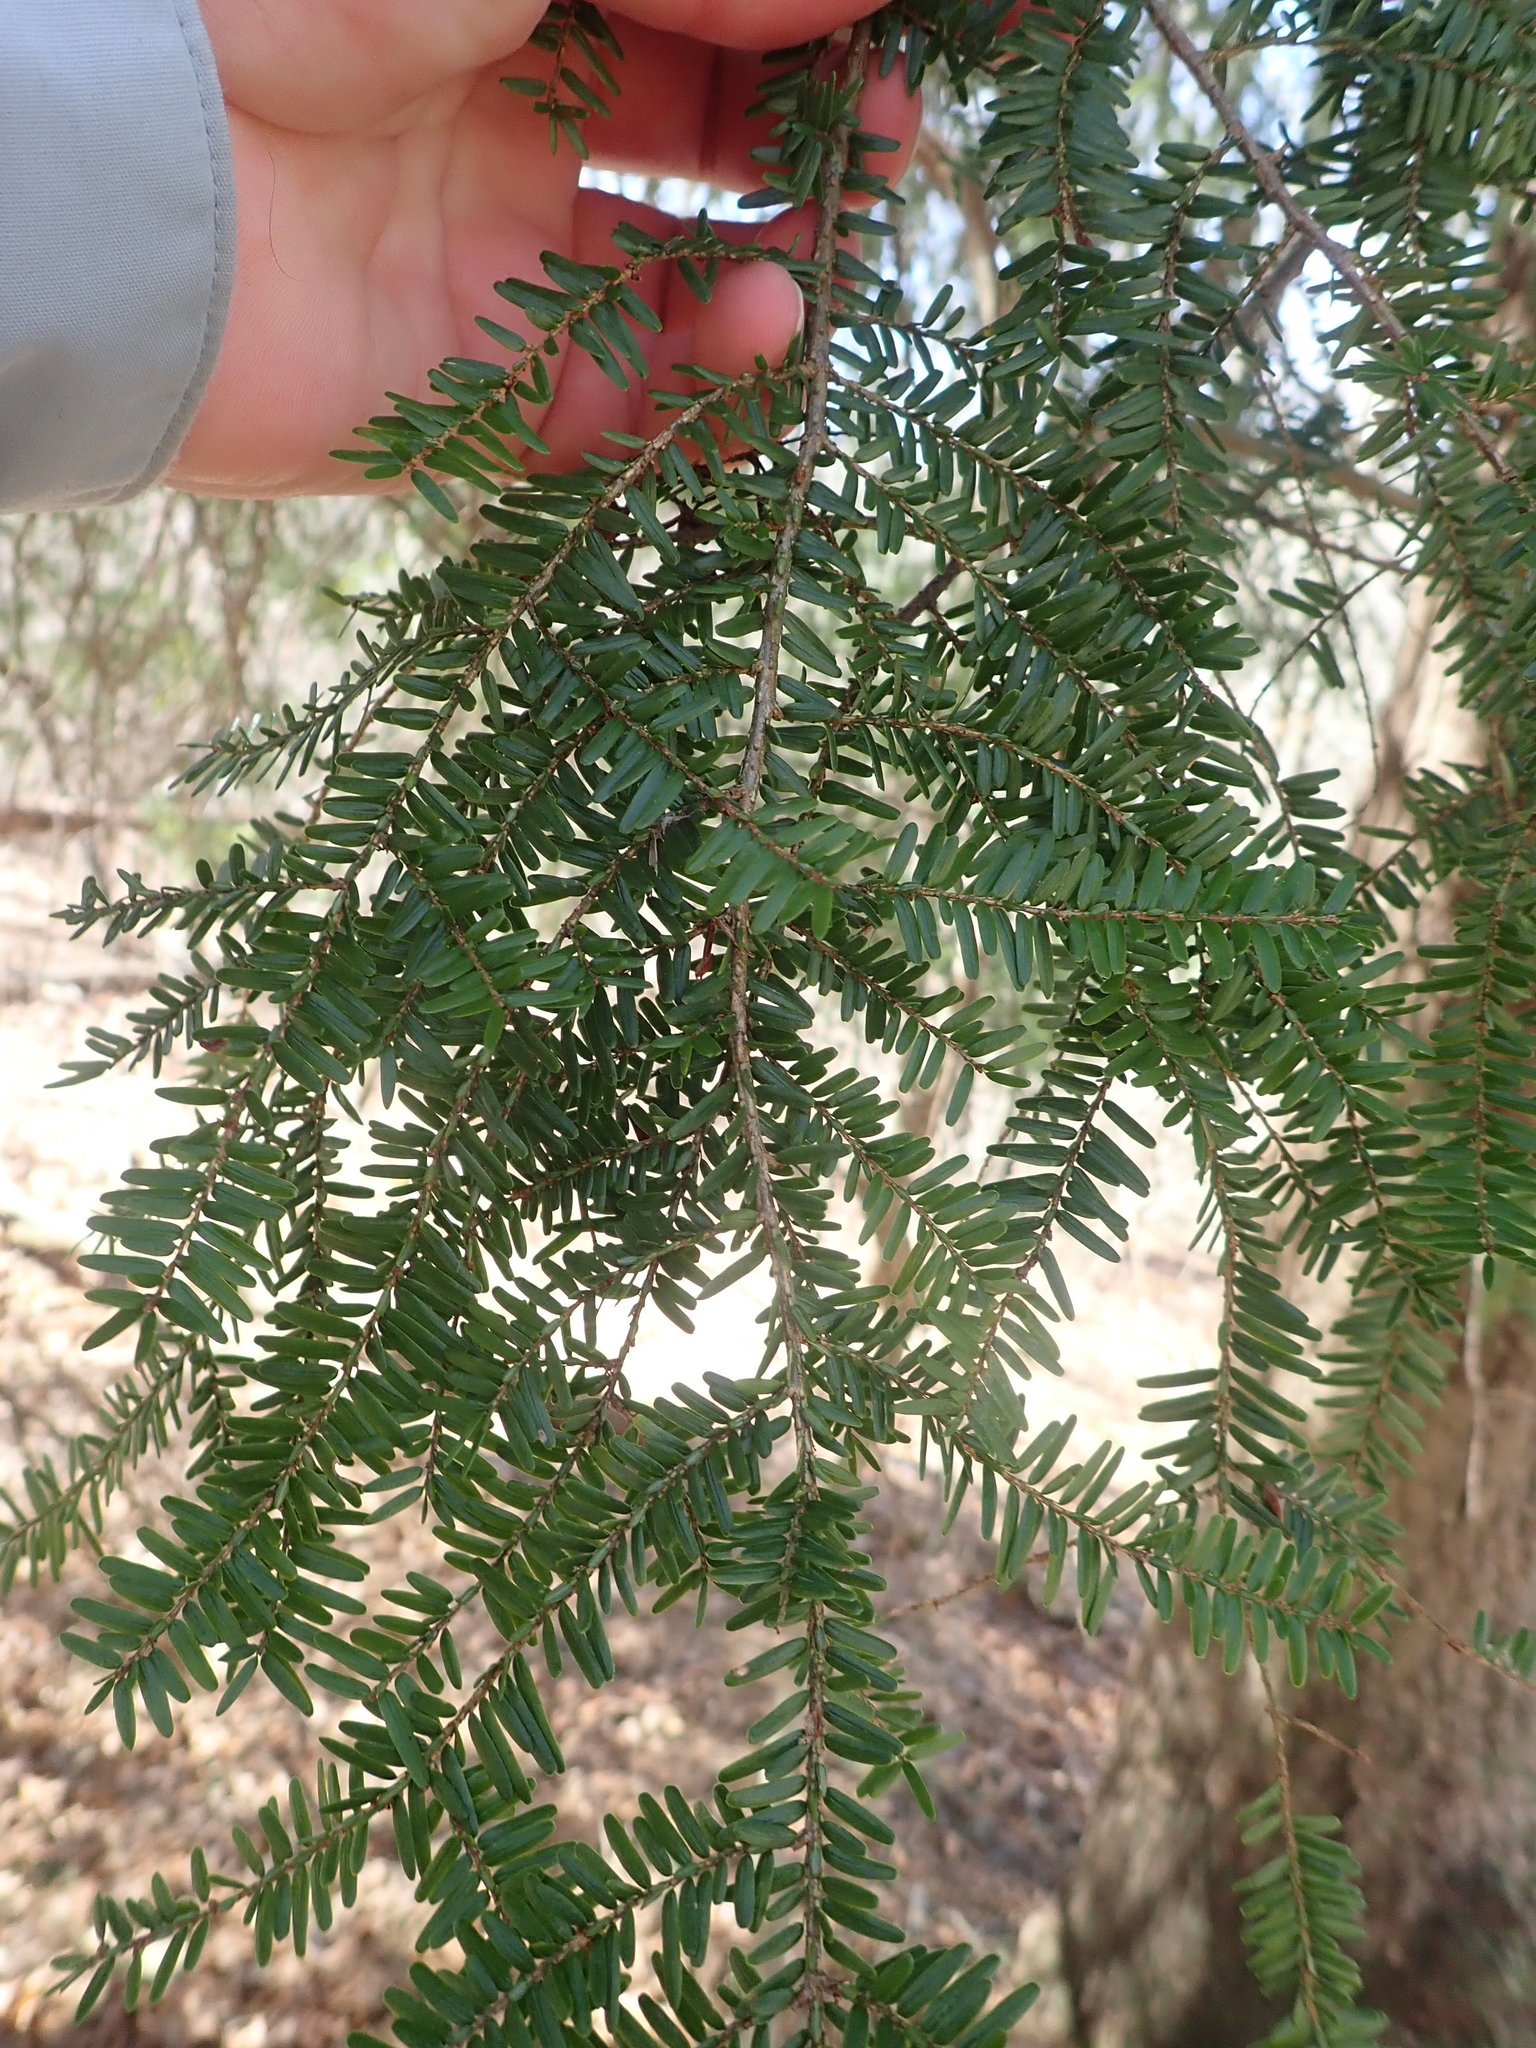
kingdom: Plantae
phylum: Tracheophyta
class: Pinopsida
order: Pinales
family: Pinaceae
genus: Tsuga
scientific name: Tsuga canadensis
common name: Eastern hemlock
